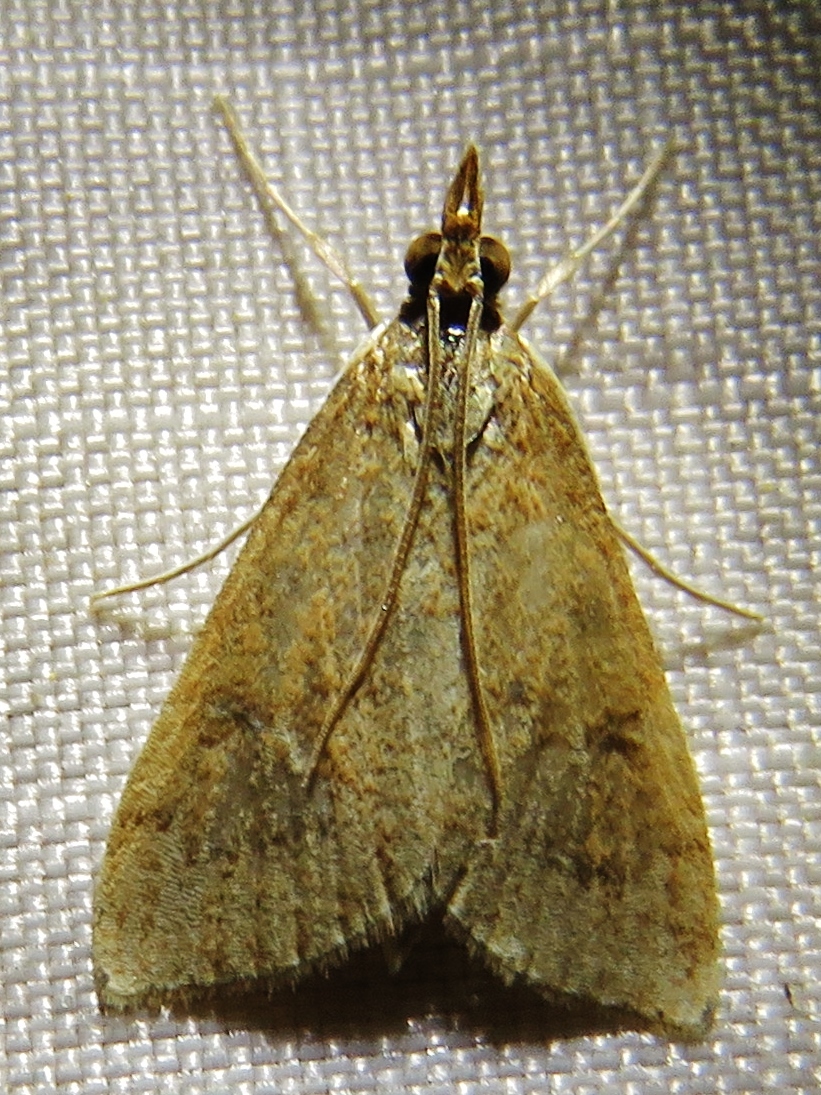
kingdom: Animalia
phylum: Arthropoda
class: Insecta
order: Lepidoptera
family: Crambidae
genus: Udea
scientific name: Udea rubigalis
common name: Celery leaftier moth
